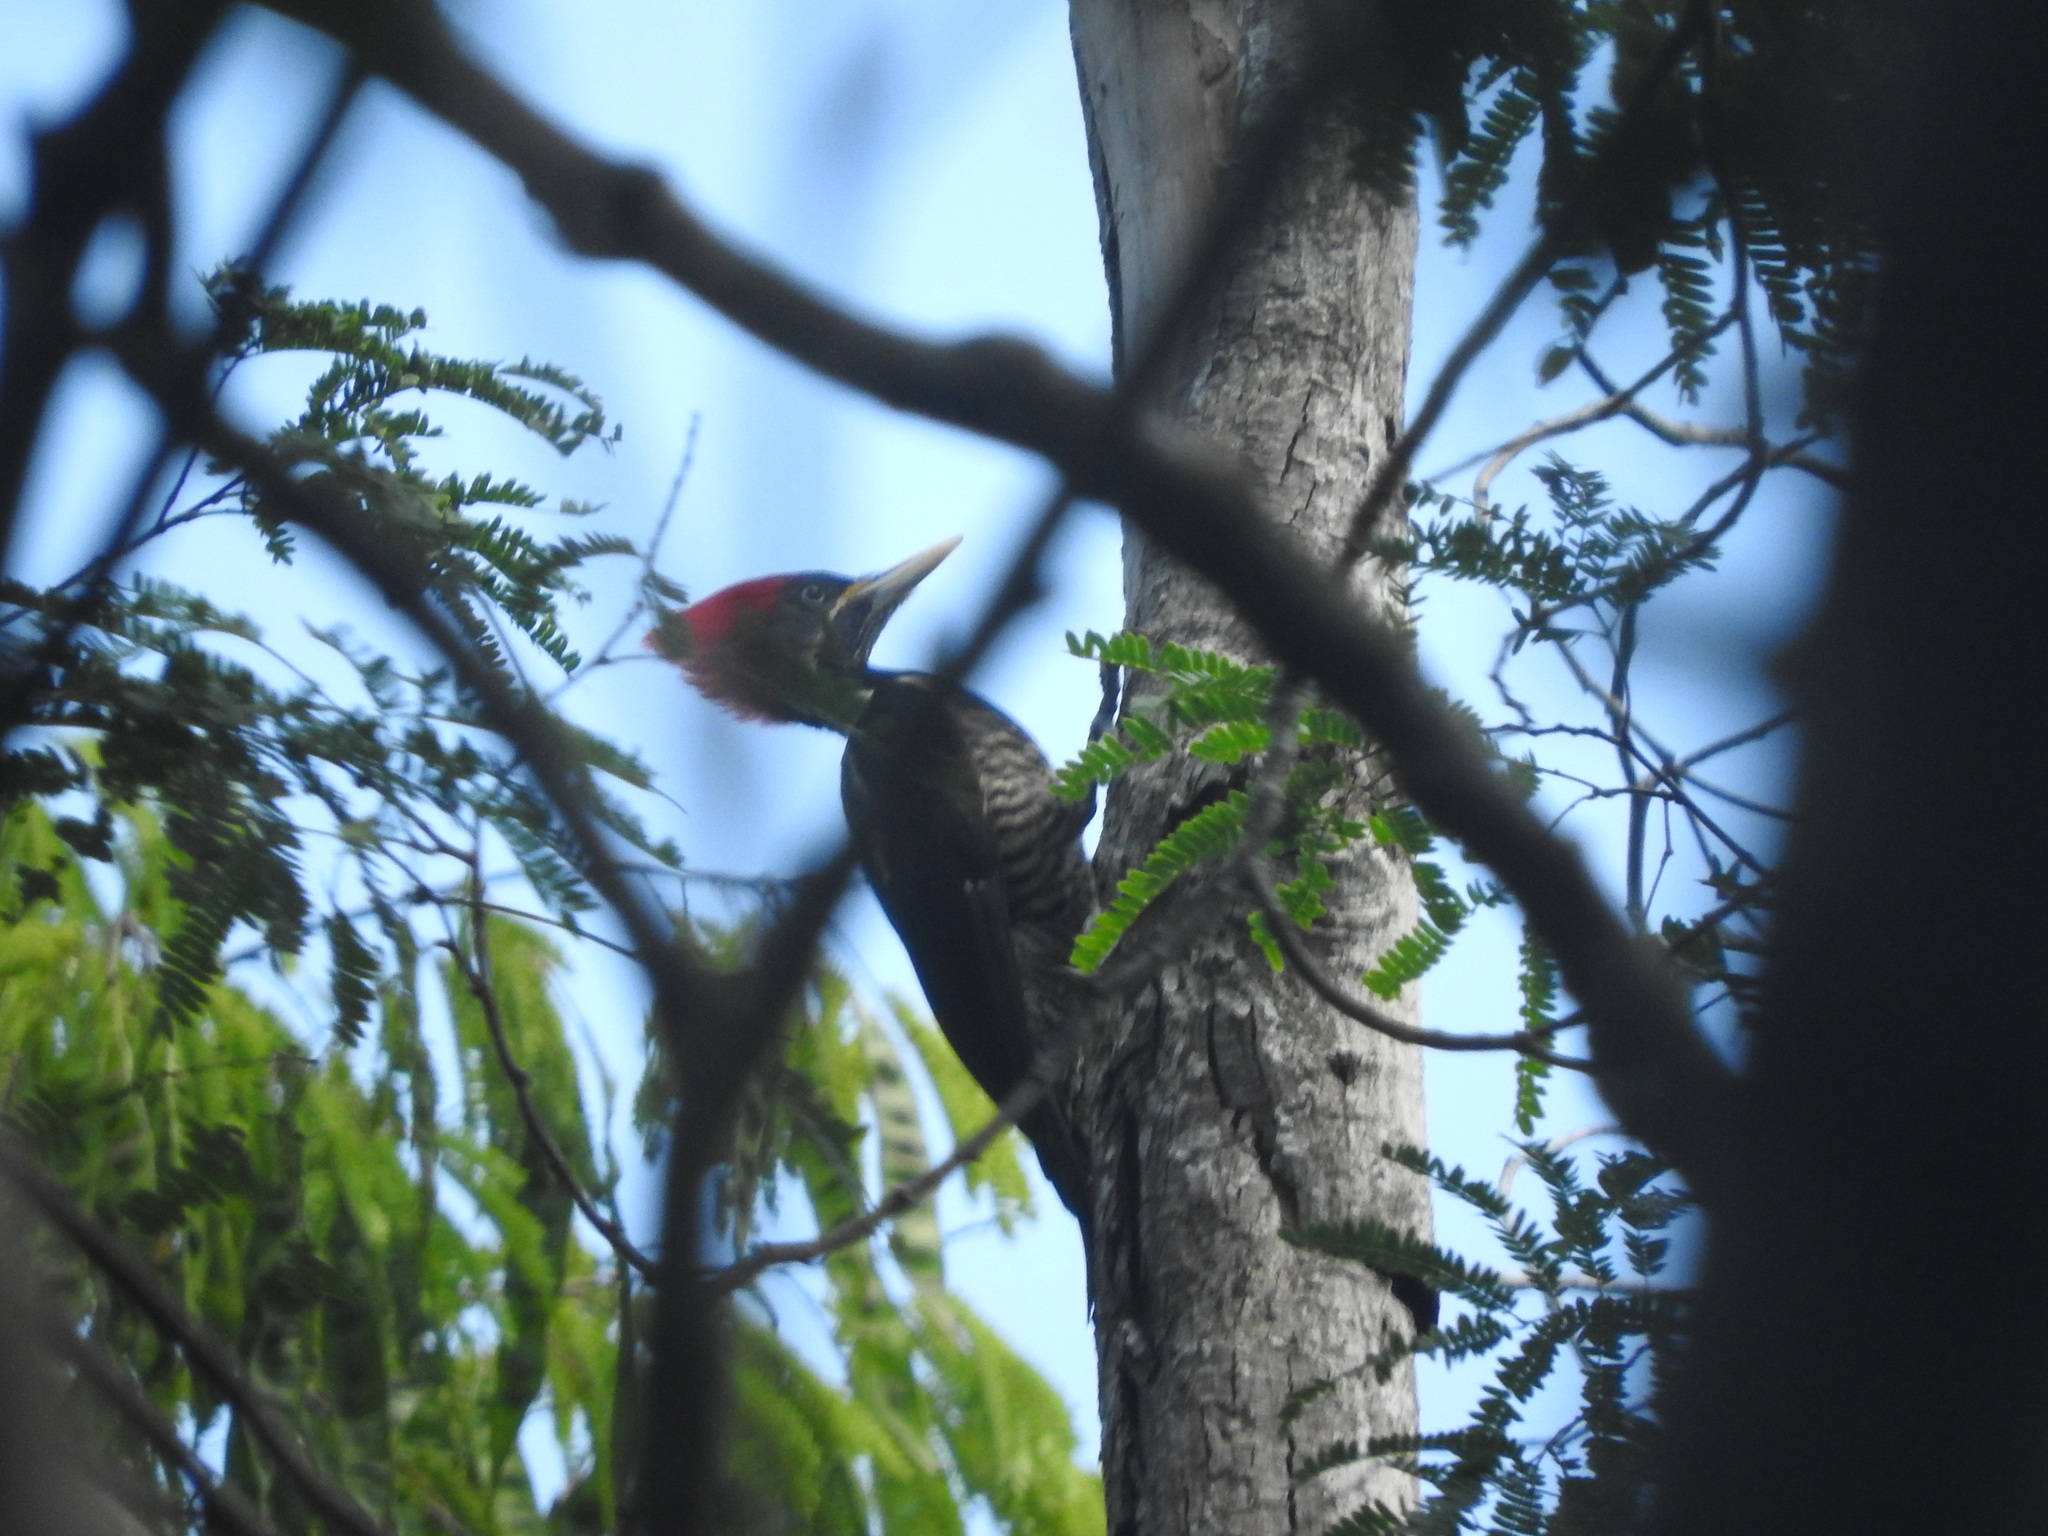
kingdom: Animalia
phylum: Chordata
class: Aves
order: Piciformes
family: Picidae
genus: Dryocopus
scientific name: Dryocopus lineatus
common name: Lineated woodpecker
